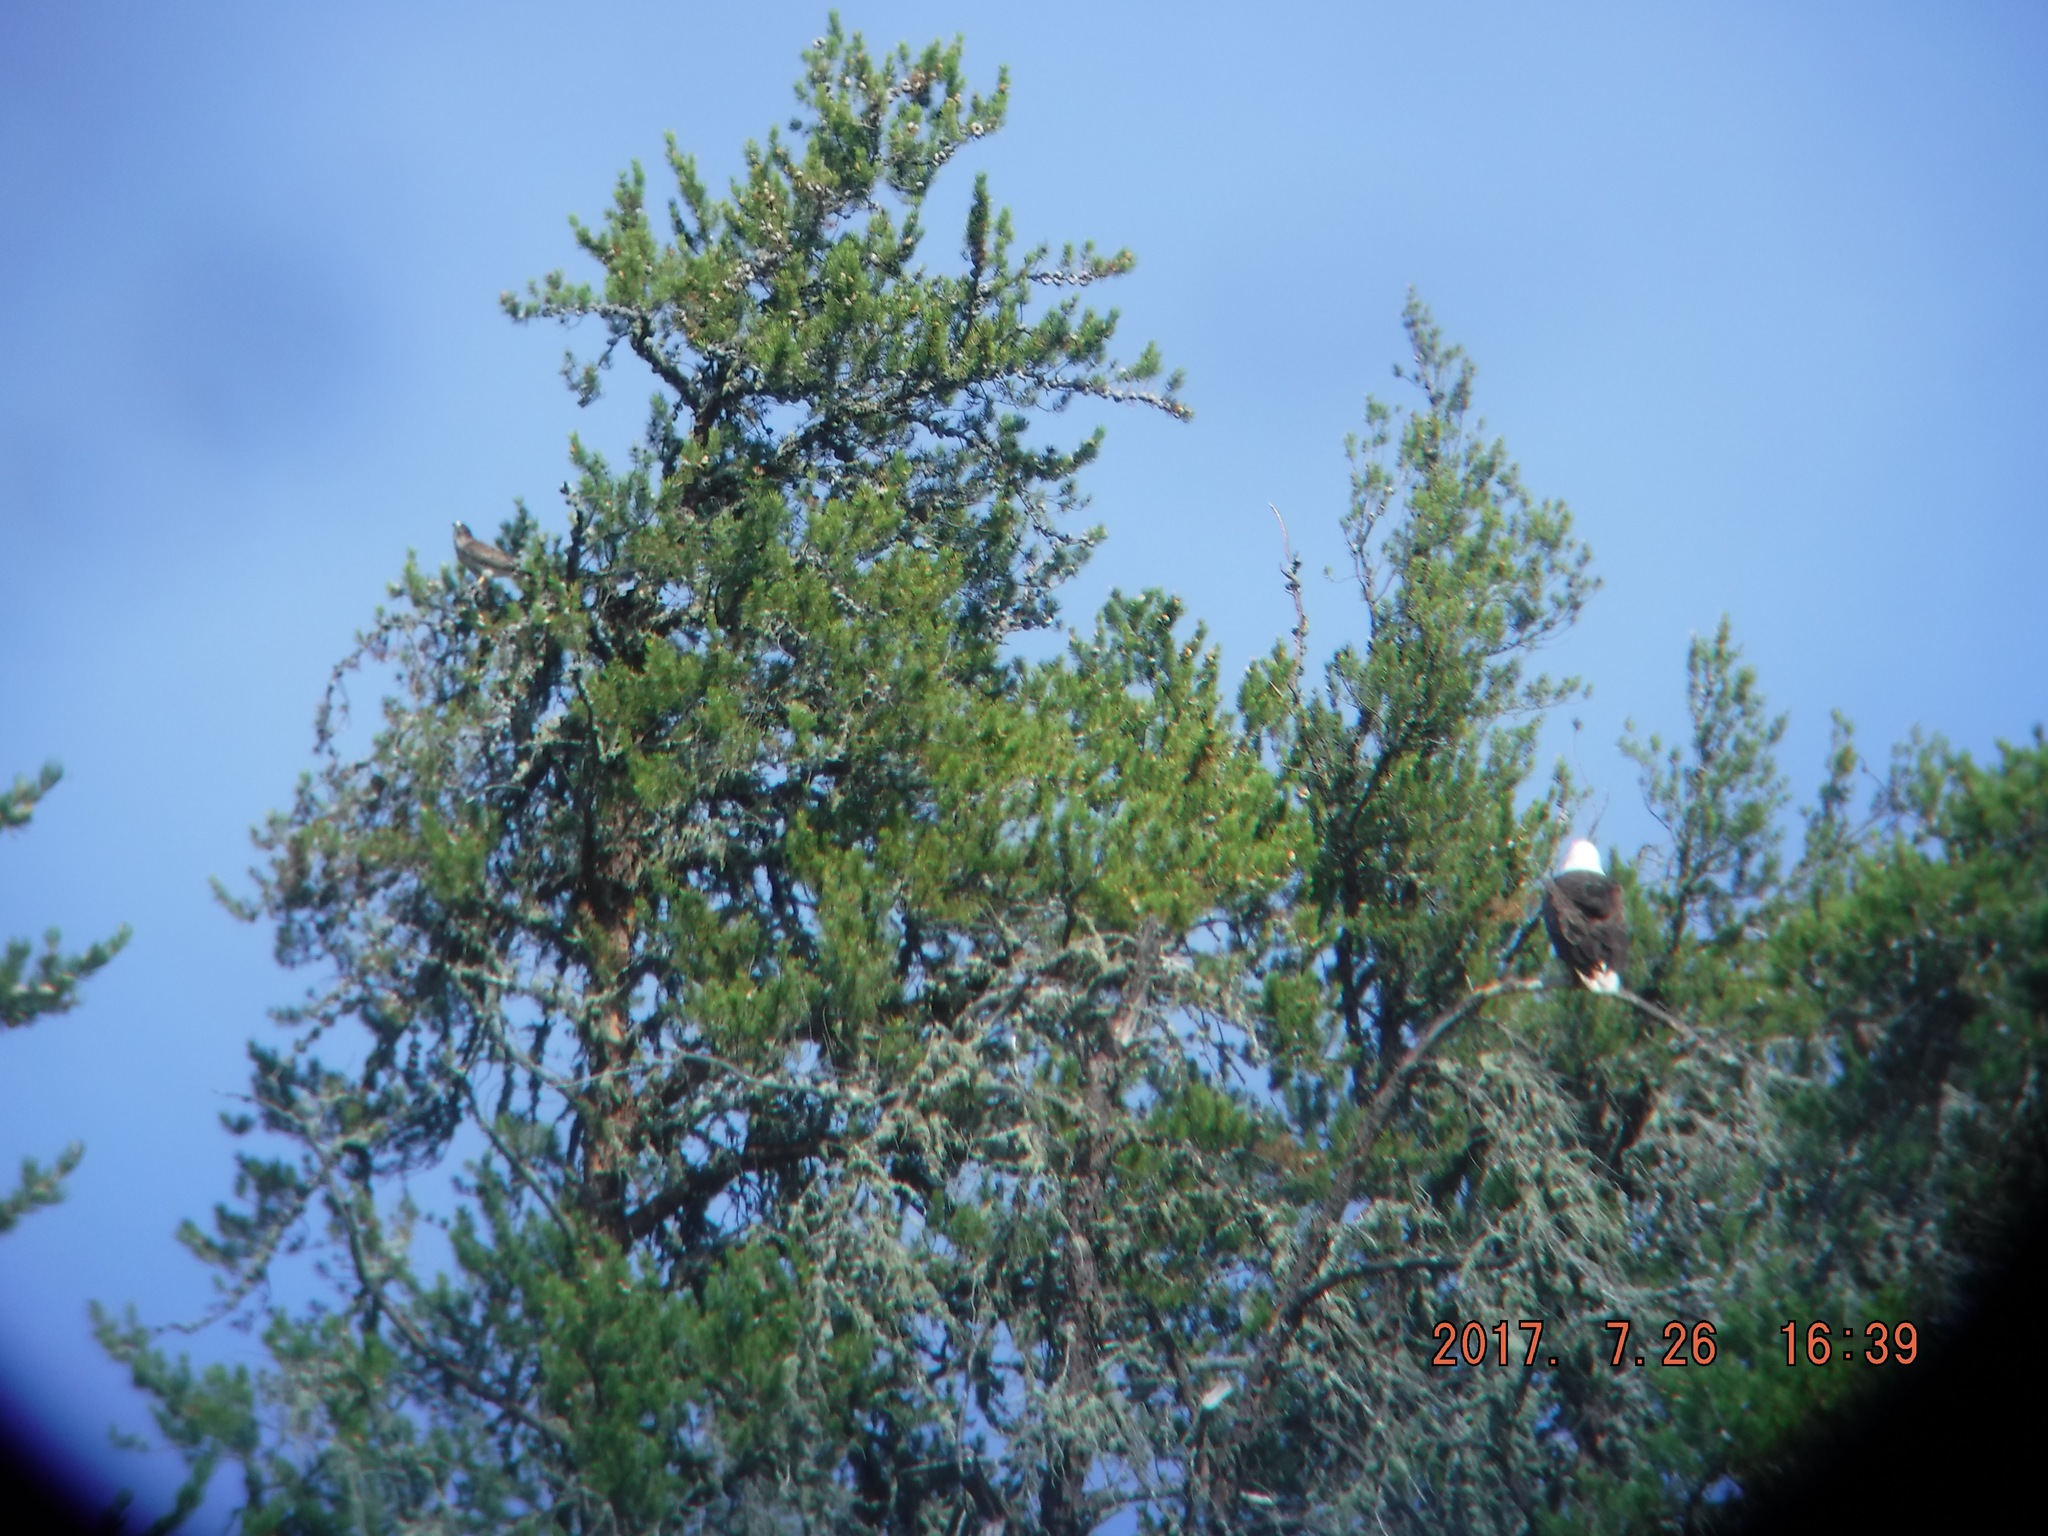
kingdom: Animalia
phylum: Chordata
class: Aves
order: Accipitriformes
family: Accipitridae
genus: Buteo
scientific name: Buteo platypterus
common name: Broad-winged hawk
